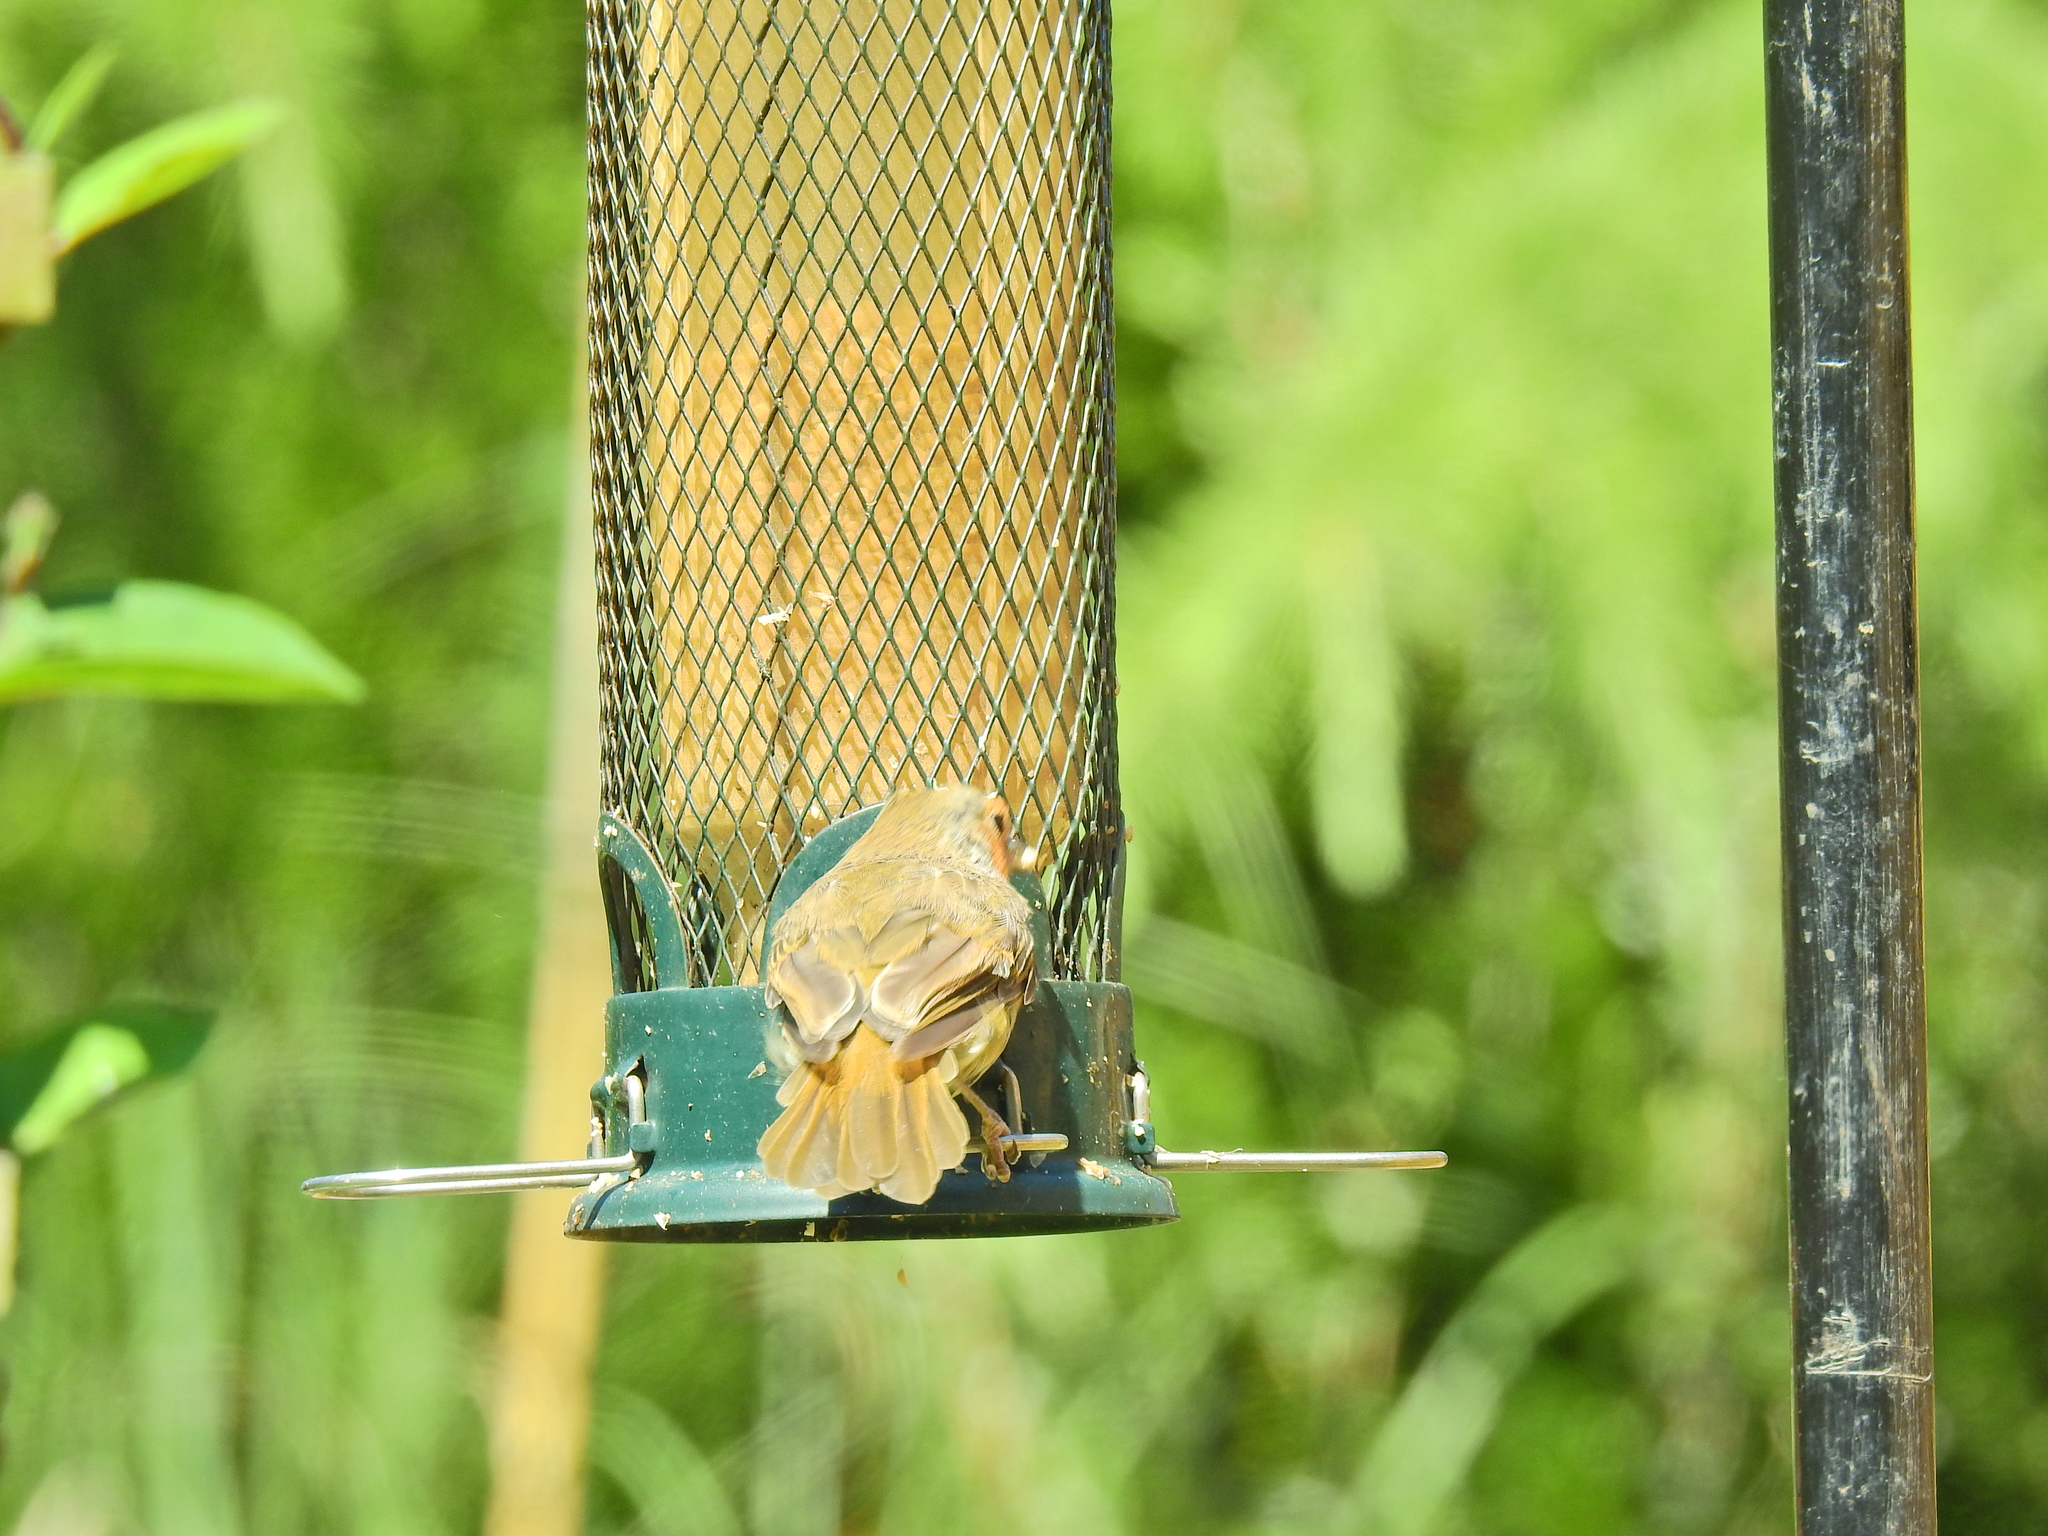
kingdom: Animalia
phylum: Chordata
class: Aves
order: Passeriformes
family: Muscicapidae
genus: Erithacus
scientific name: Erithacus rubecula
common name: European robin
